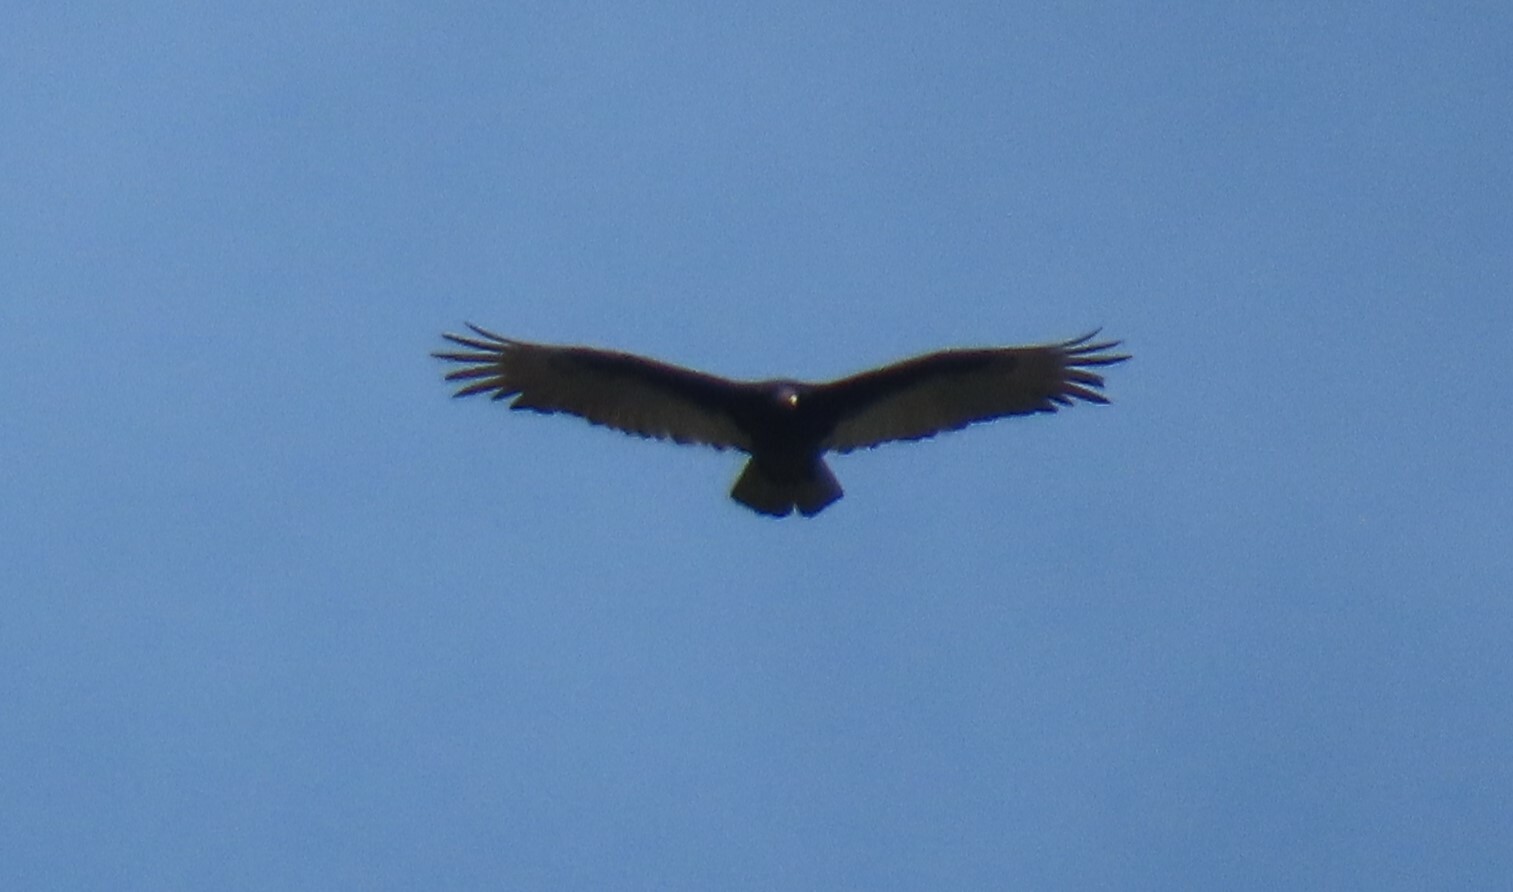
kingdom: Animalia
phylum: Chordata
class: Aves
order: Accipitriformes
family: Cathartidae
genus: Cathartes
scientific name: Cathartes aura
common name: Turkey vulture
